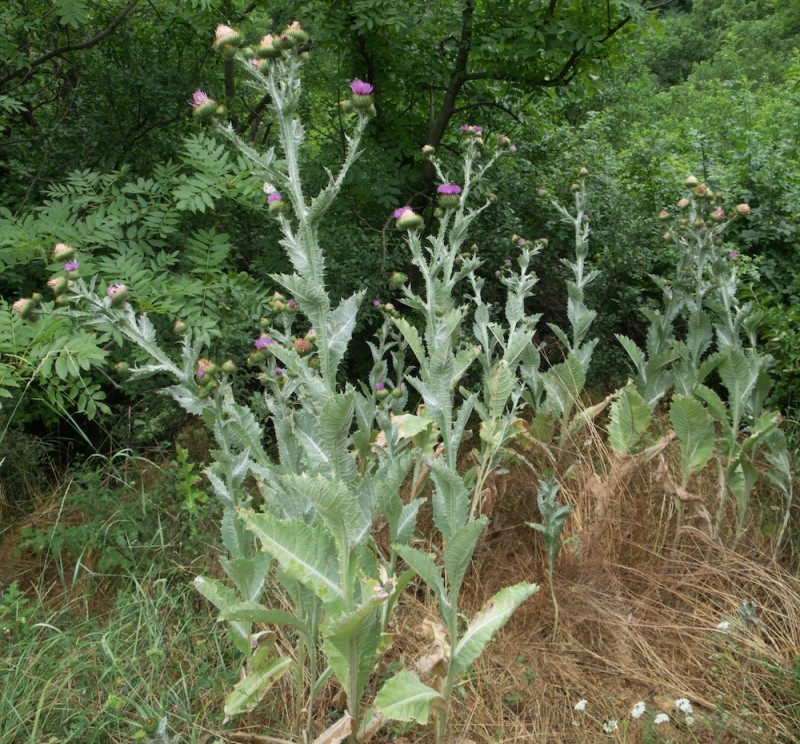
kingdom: Plantae
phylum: Tracheophyta
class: Magnoliopsida
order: Asterales
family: Asteraceae
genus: Onopordum
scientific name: Onopordum acanthium
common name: Scotch thistle
